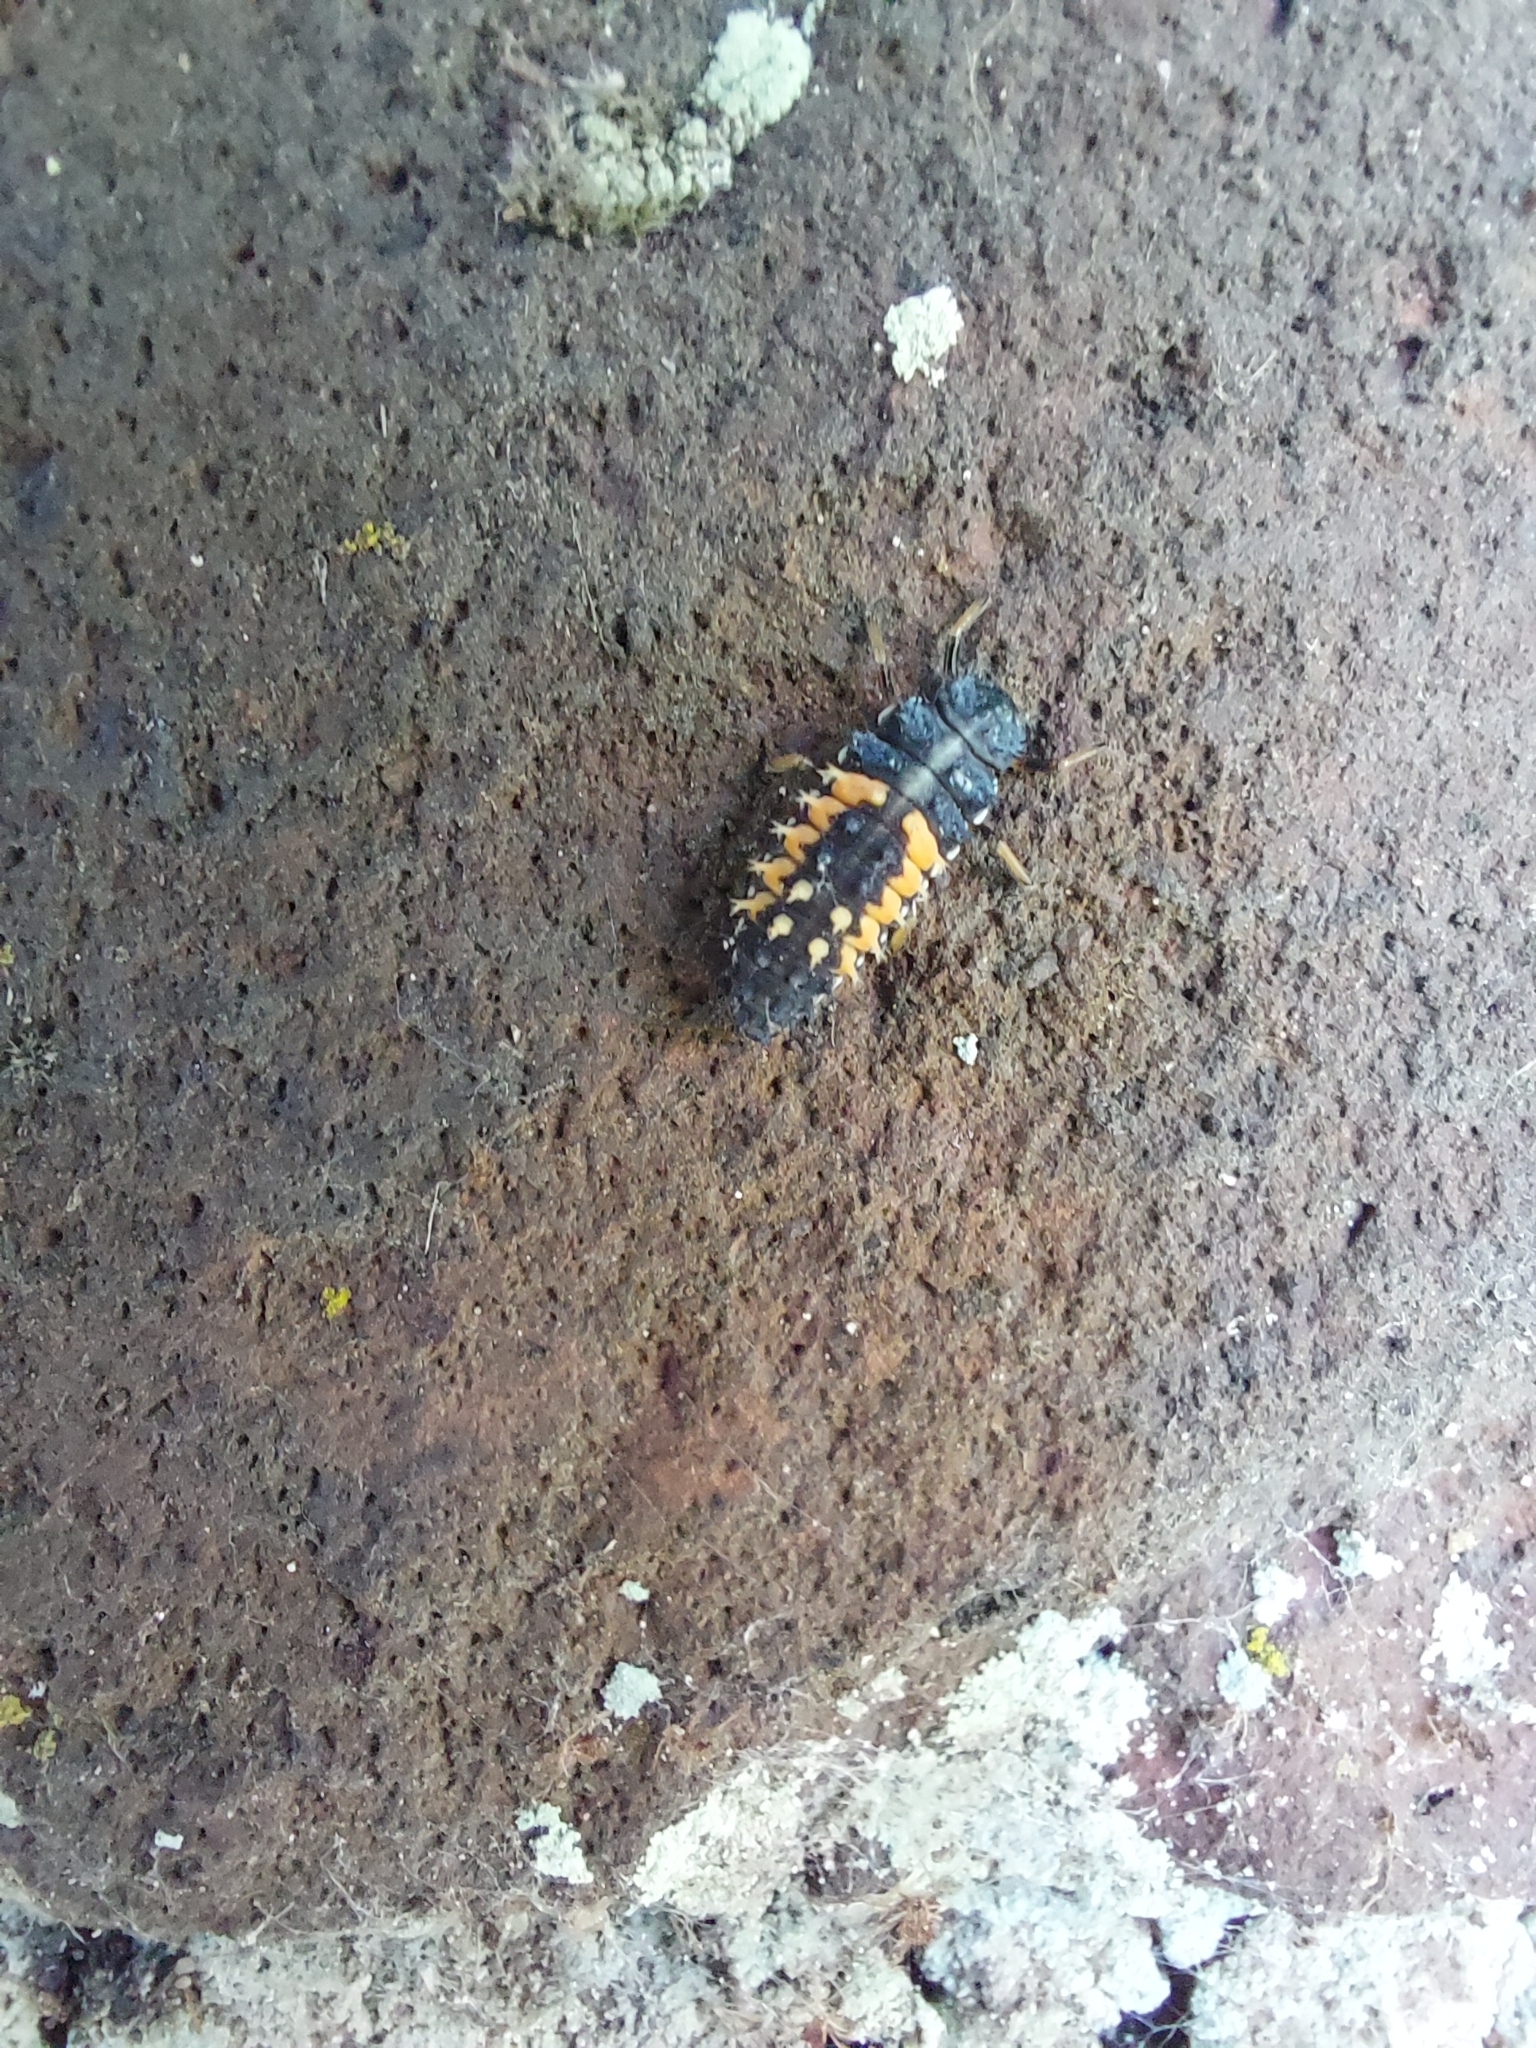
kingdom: Animalia
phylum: Arthropoda
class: Insecta
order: Coleoptera
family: Coccinellidae
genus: Harmonia
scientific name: Harmonia axyridis
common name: Harlequin ladybird
